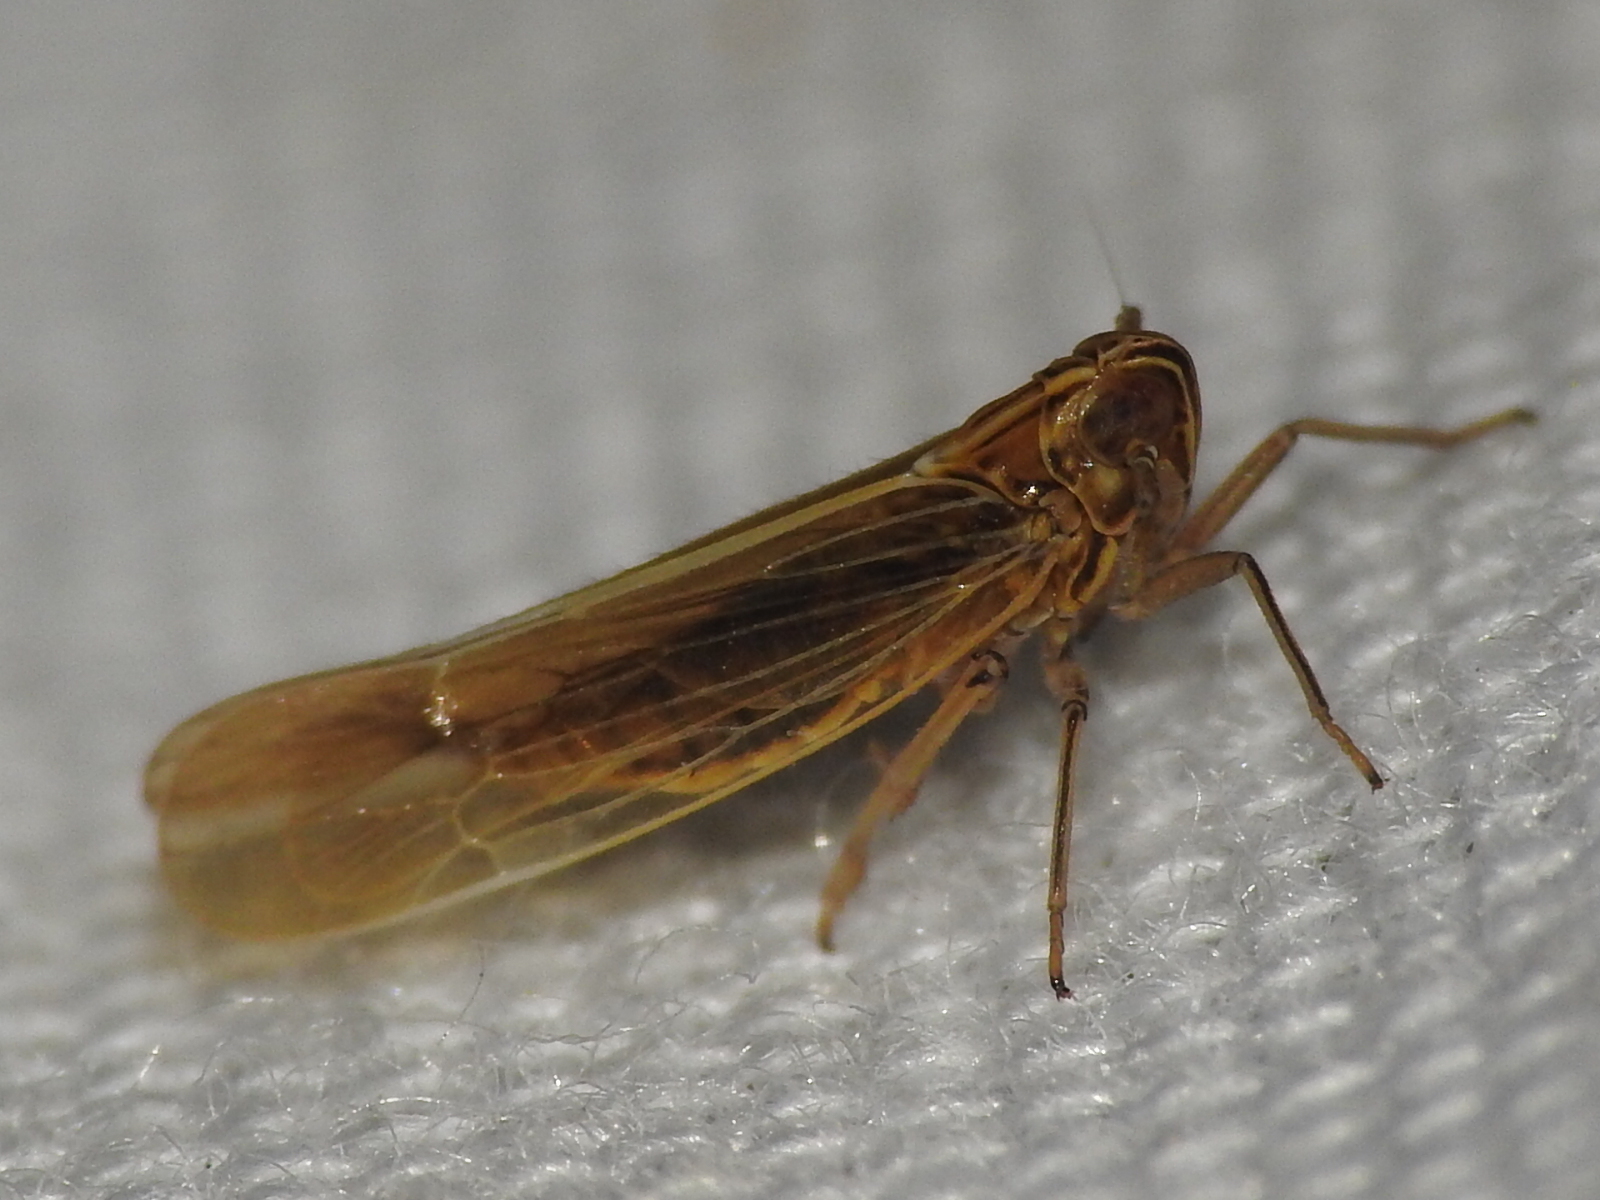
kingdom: Animalia
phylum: Arthropoda
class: Insecta
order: Hemiptera
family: Delphacidae
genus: Nothodelphax
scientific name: Nothodelphax slossonae
